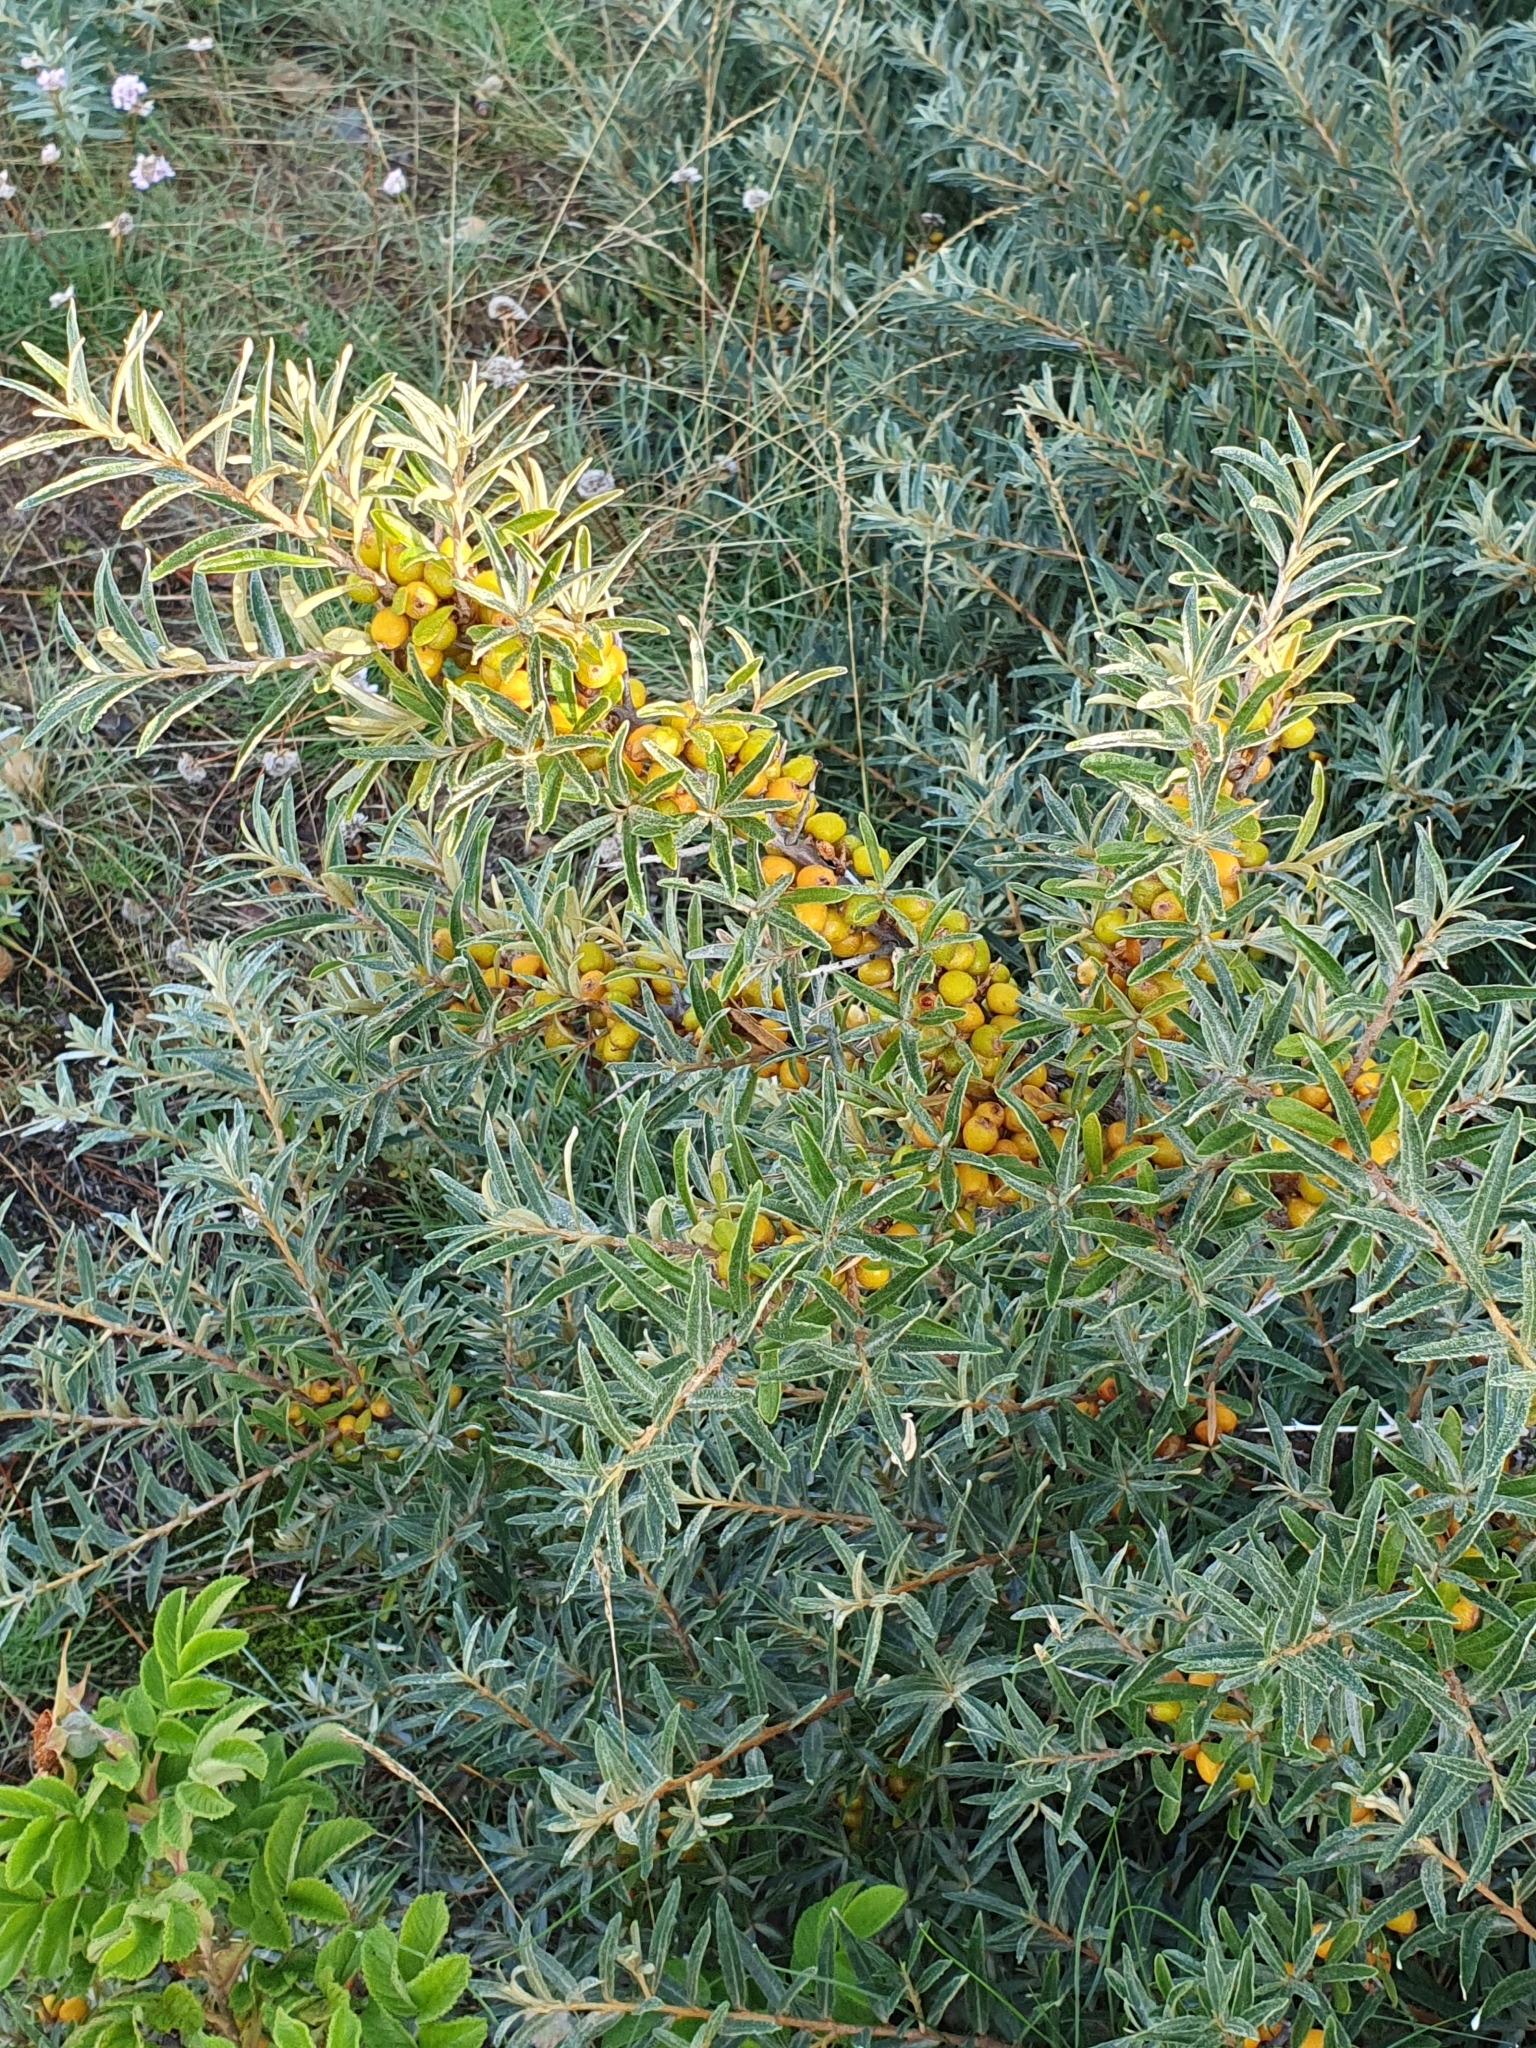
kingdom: Plantae
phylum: Tracheophyta
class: Magnoliopsida
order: Rosales
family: Elaeagnaceae
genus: Hippophae
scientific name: Hippophae rhamnoides
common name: Sea-buckthorn
